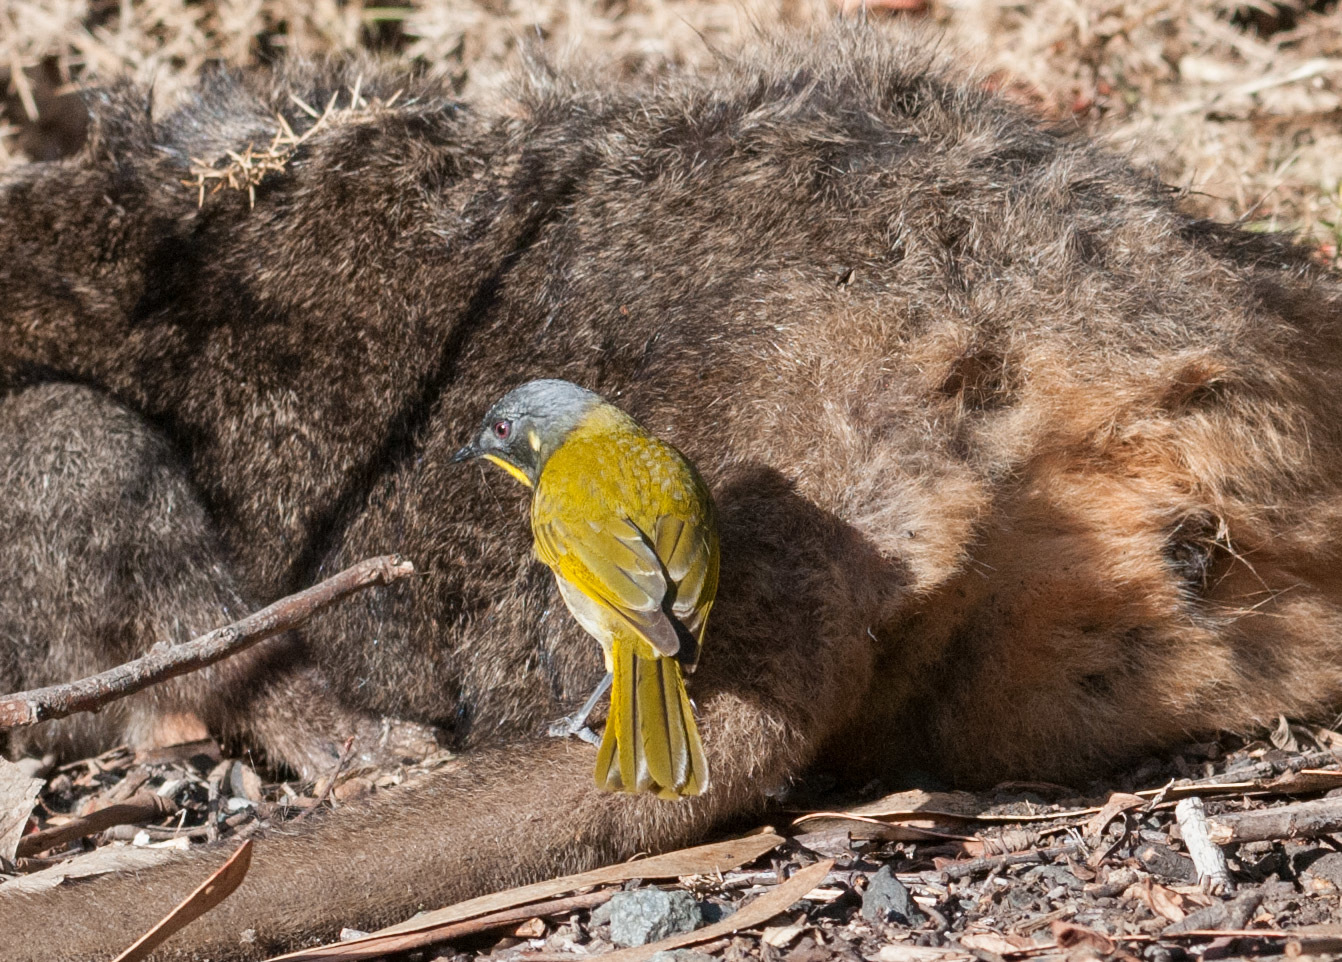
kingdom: Animalia
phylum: Chordata
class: Aves
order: Passeriformes
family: Meliphagidae
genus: Nesoptilotis
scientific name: Nesoptilotis flavicollis
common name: Yellow-throated honeyeater
